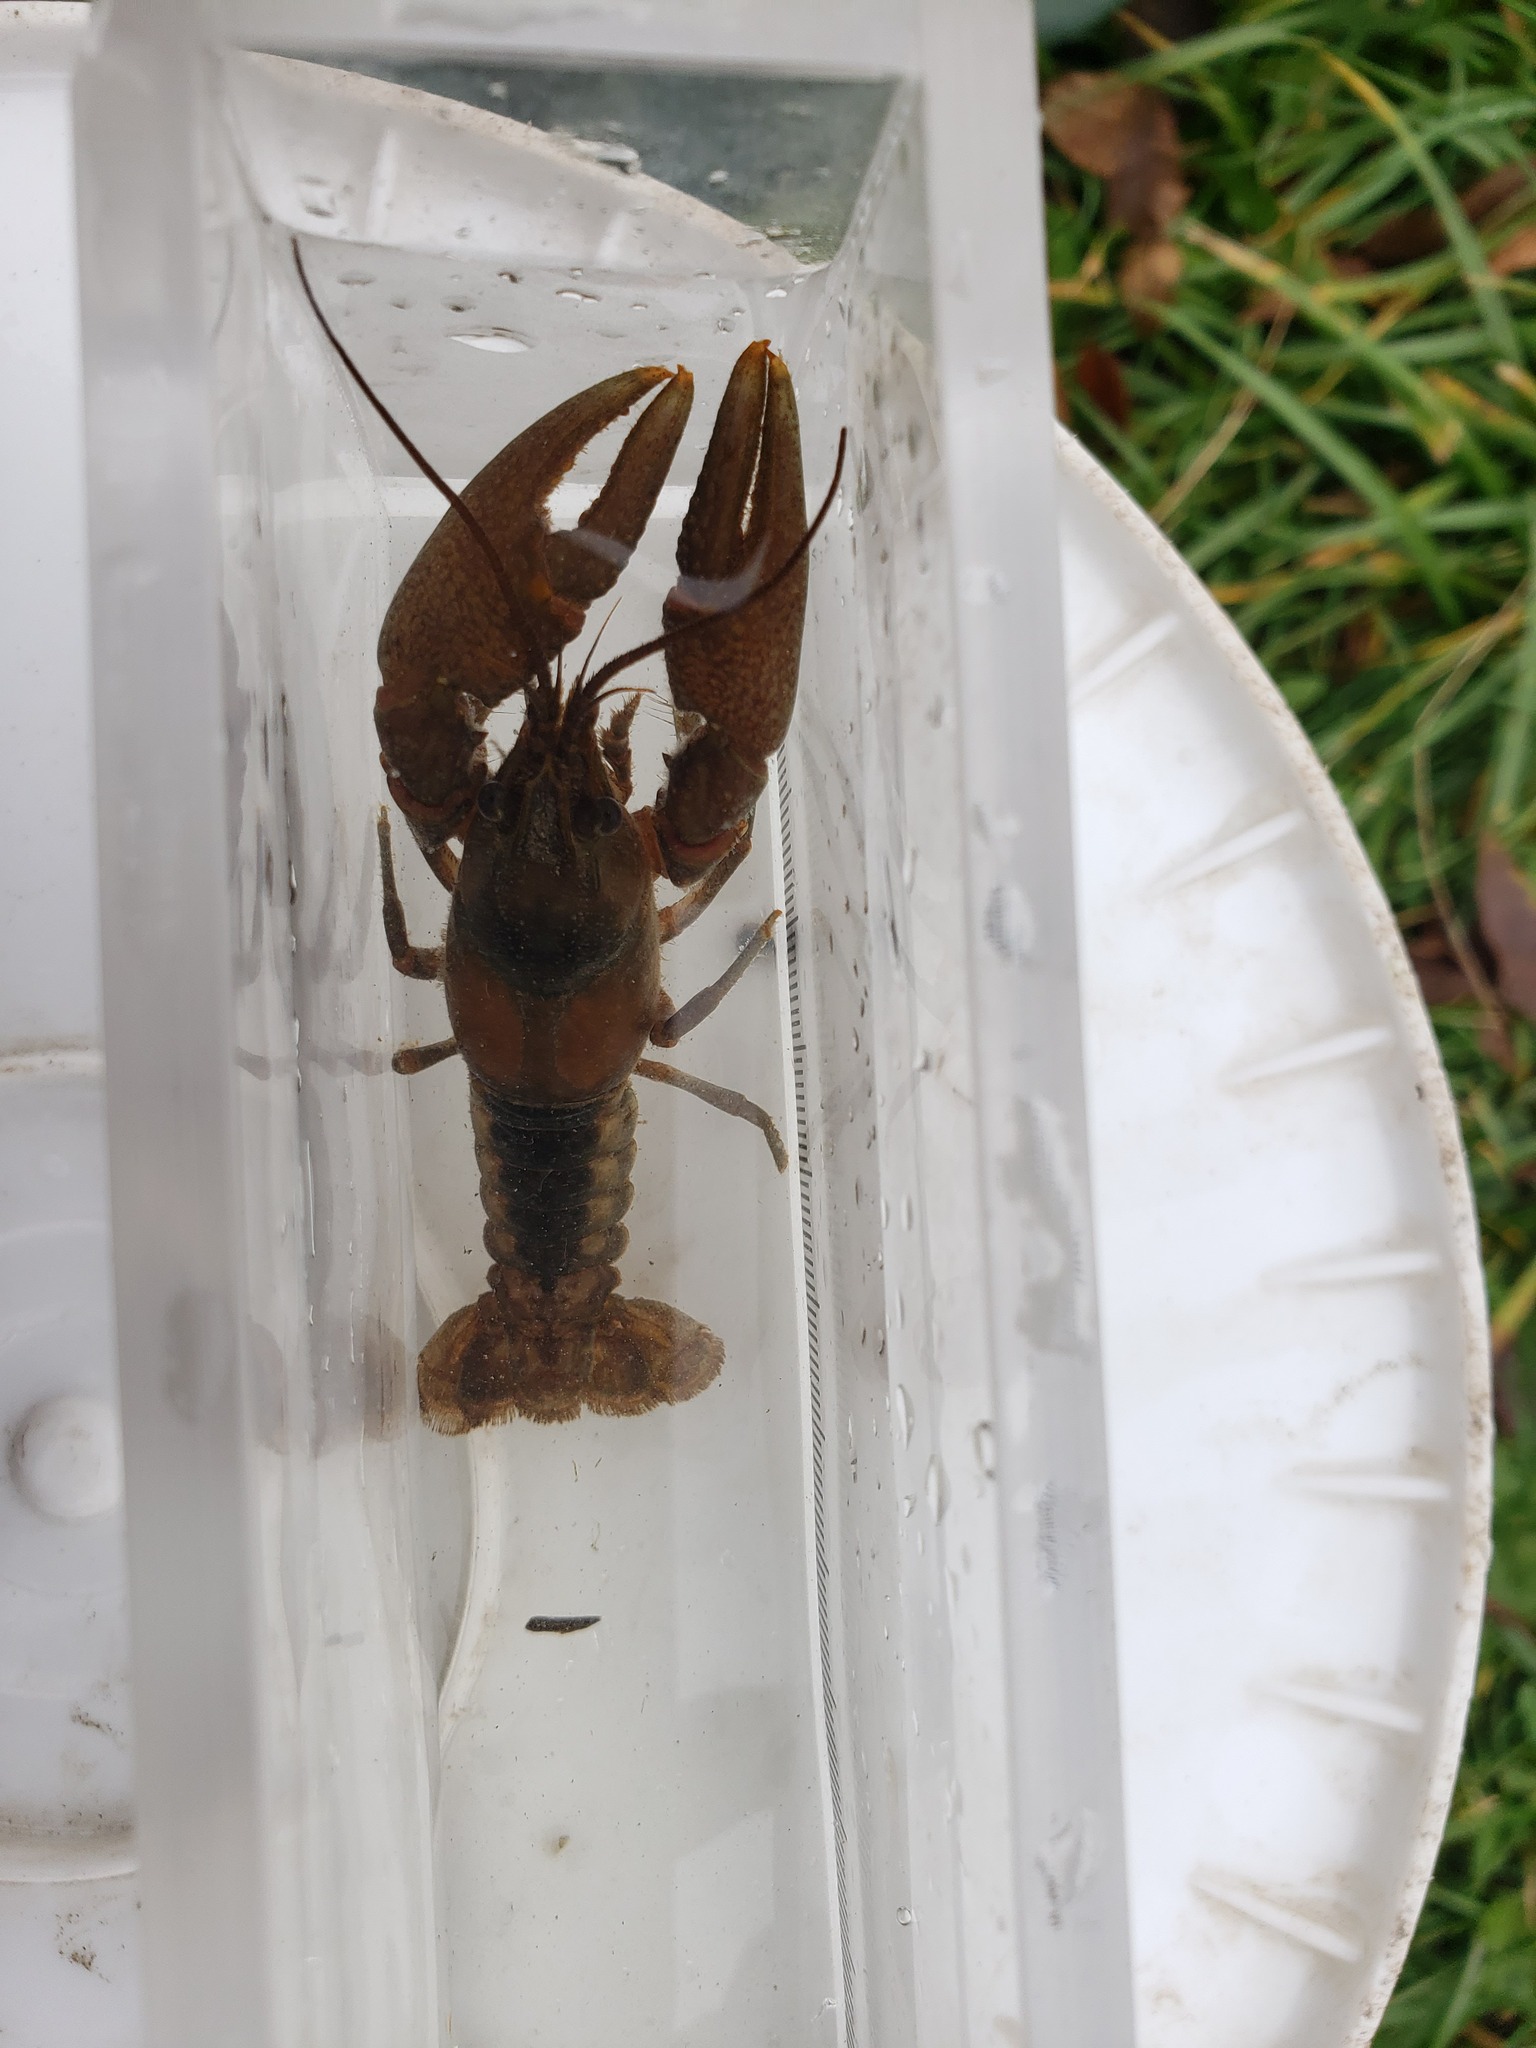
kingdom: Animalia
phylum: Arthropoda
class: Malacostraca
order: Decapoda
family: Cambaridae
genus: Faxonius
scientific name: Faxonius propinquus
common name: Northern clearwater crayfish
